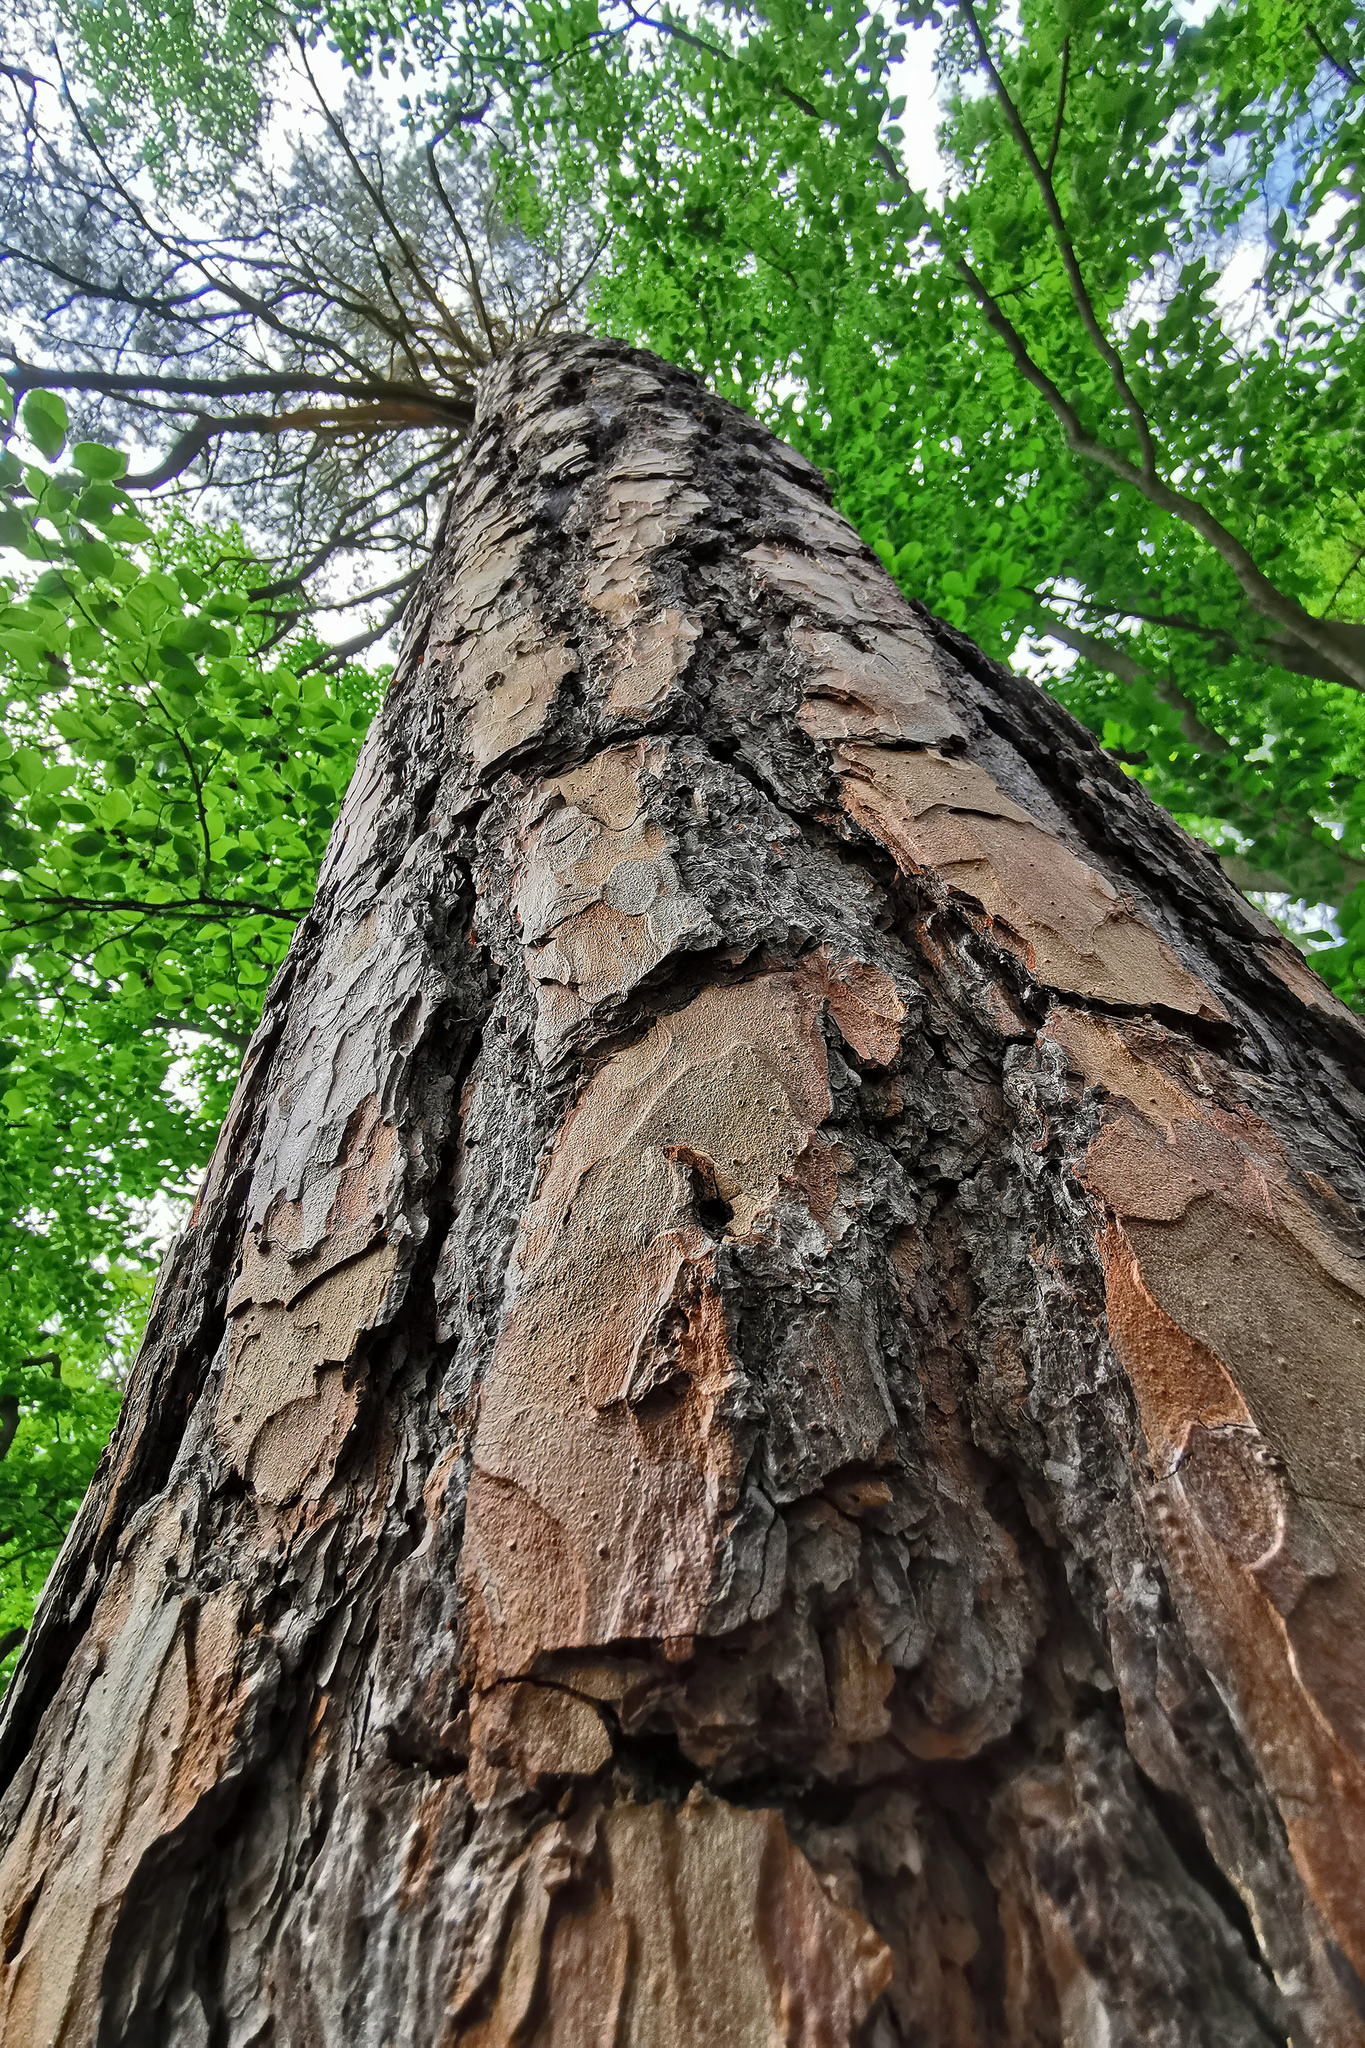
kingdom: Plantae
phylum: Tracheophyta
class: Pinopsida
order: Pinales
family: Pinaceae
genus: Pinus
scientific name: Pinus sylvestris
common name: Scots pine
